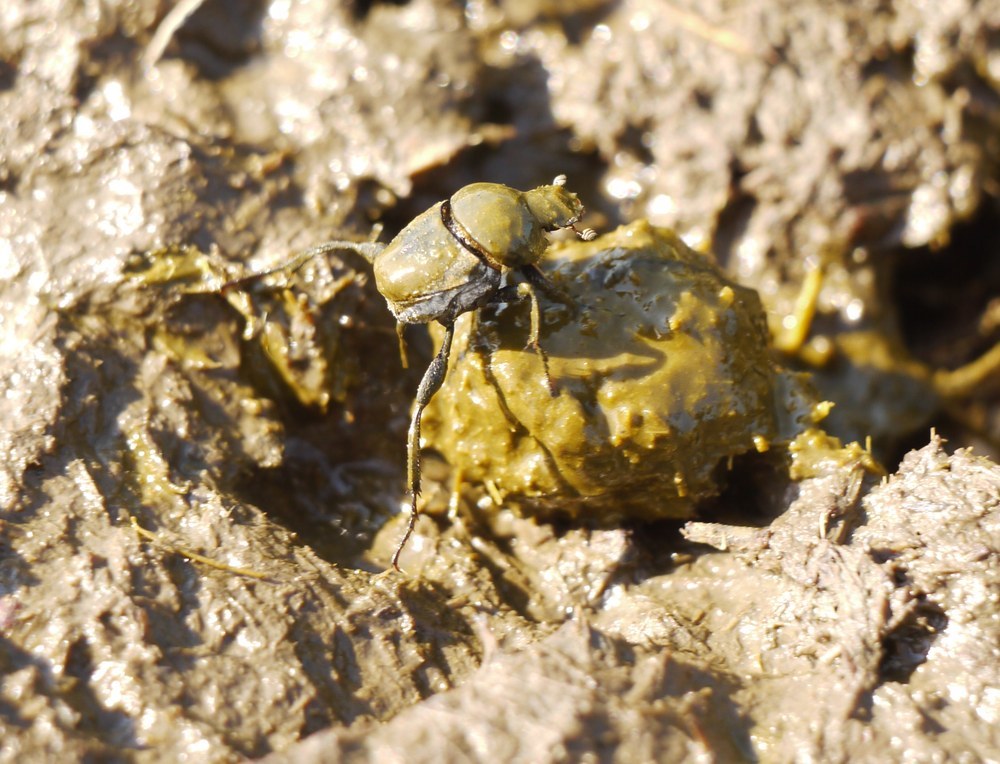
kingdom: Animalia
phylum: Arthropoda
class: Insecta
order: Coleoptera
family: Scarabaeidae
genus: Sisyphus
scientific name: Sisyphus schaefferi
